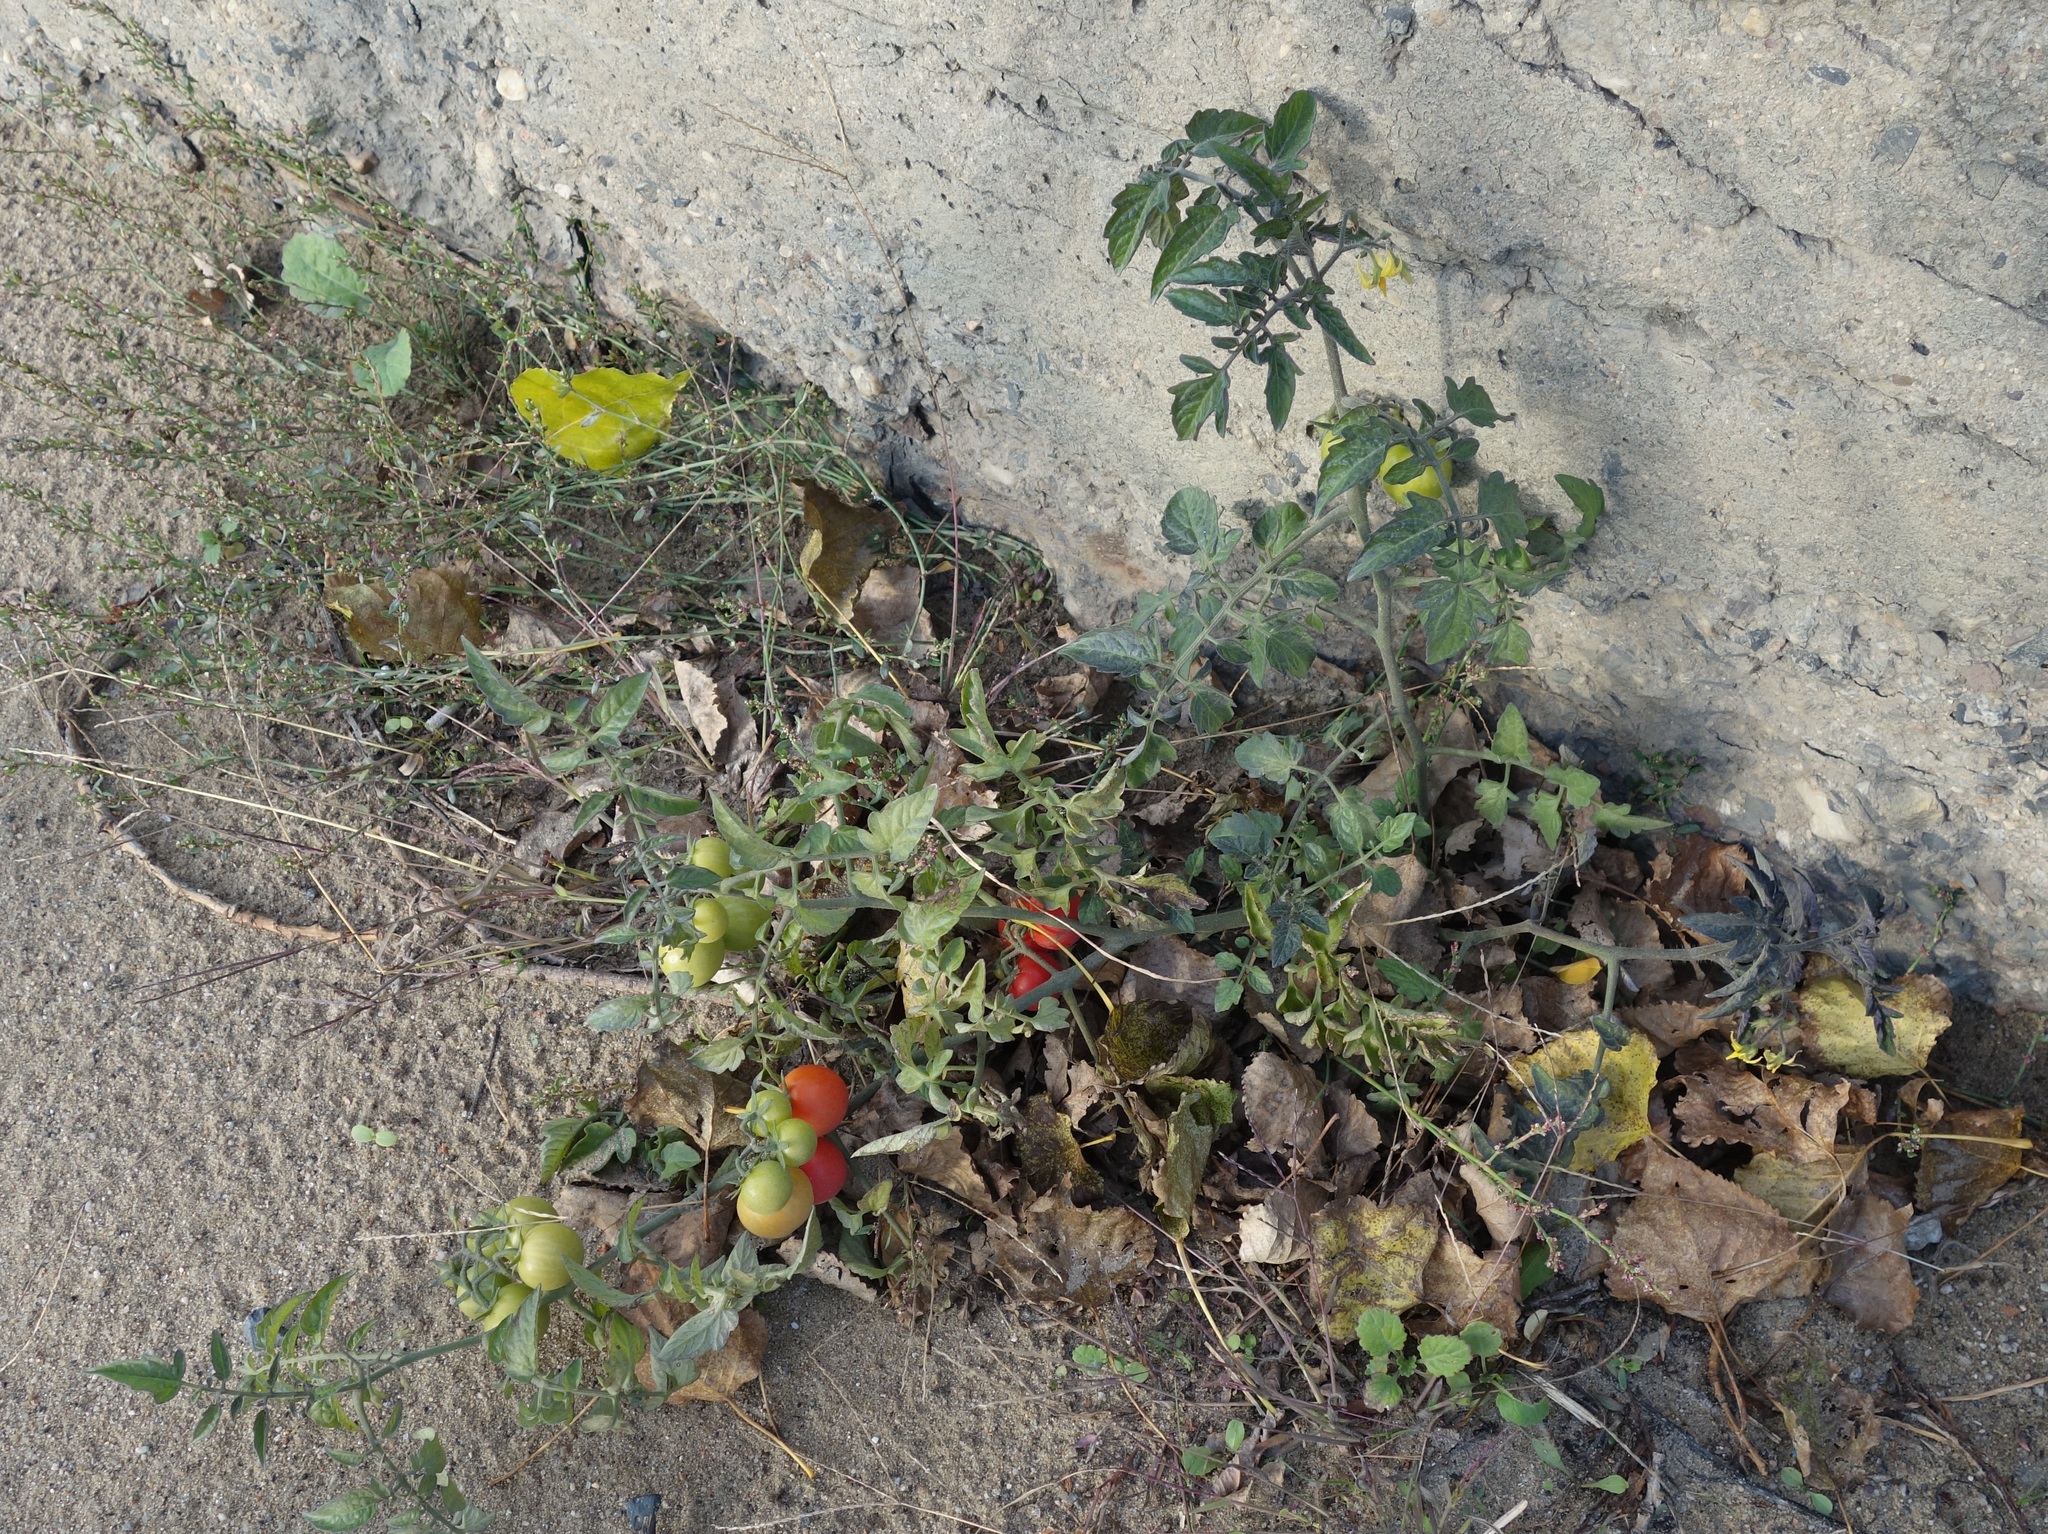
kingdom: Plantae
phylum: Tracheophyta
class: Magnoliopsida
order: Solanales
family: Solanaceae
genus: Solanum
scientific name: Solanum lycopersicum
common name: Garden tomato
